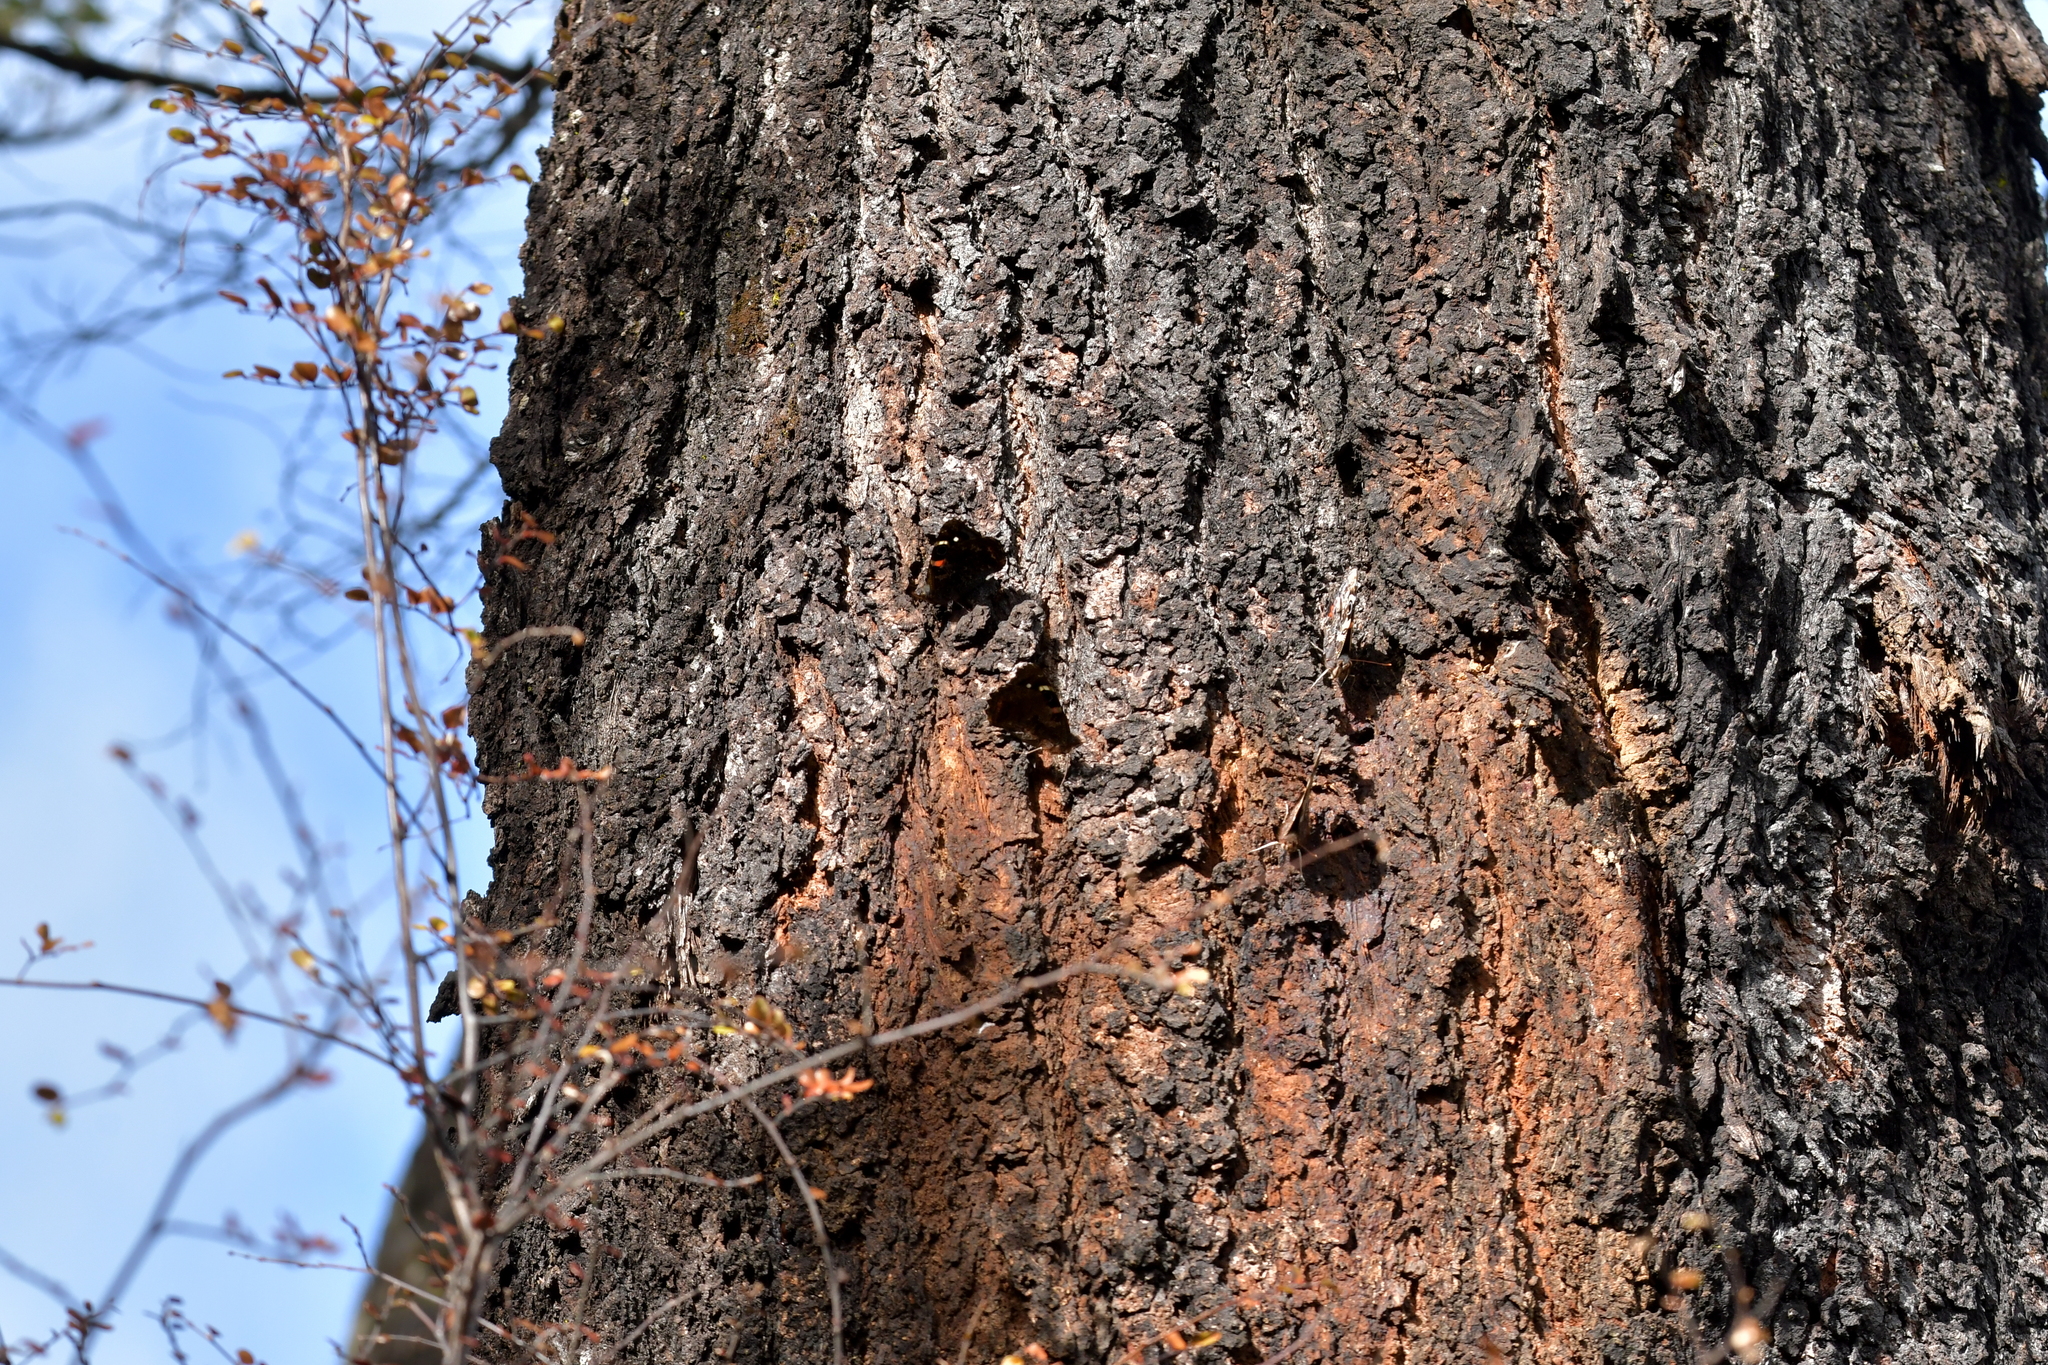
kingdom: Animalia
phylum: Arthropoda
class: Insecta
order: Lepidoptera
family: Nymphalidae
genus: Vanessa
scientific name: Vanessa gonerilla
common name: New zealand red admiral
